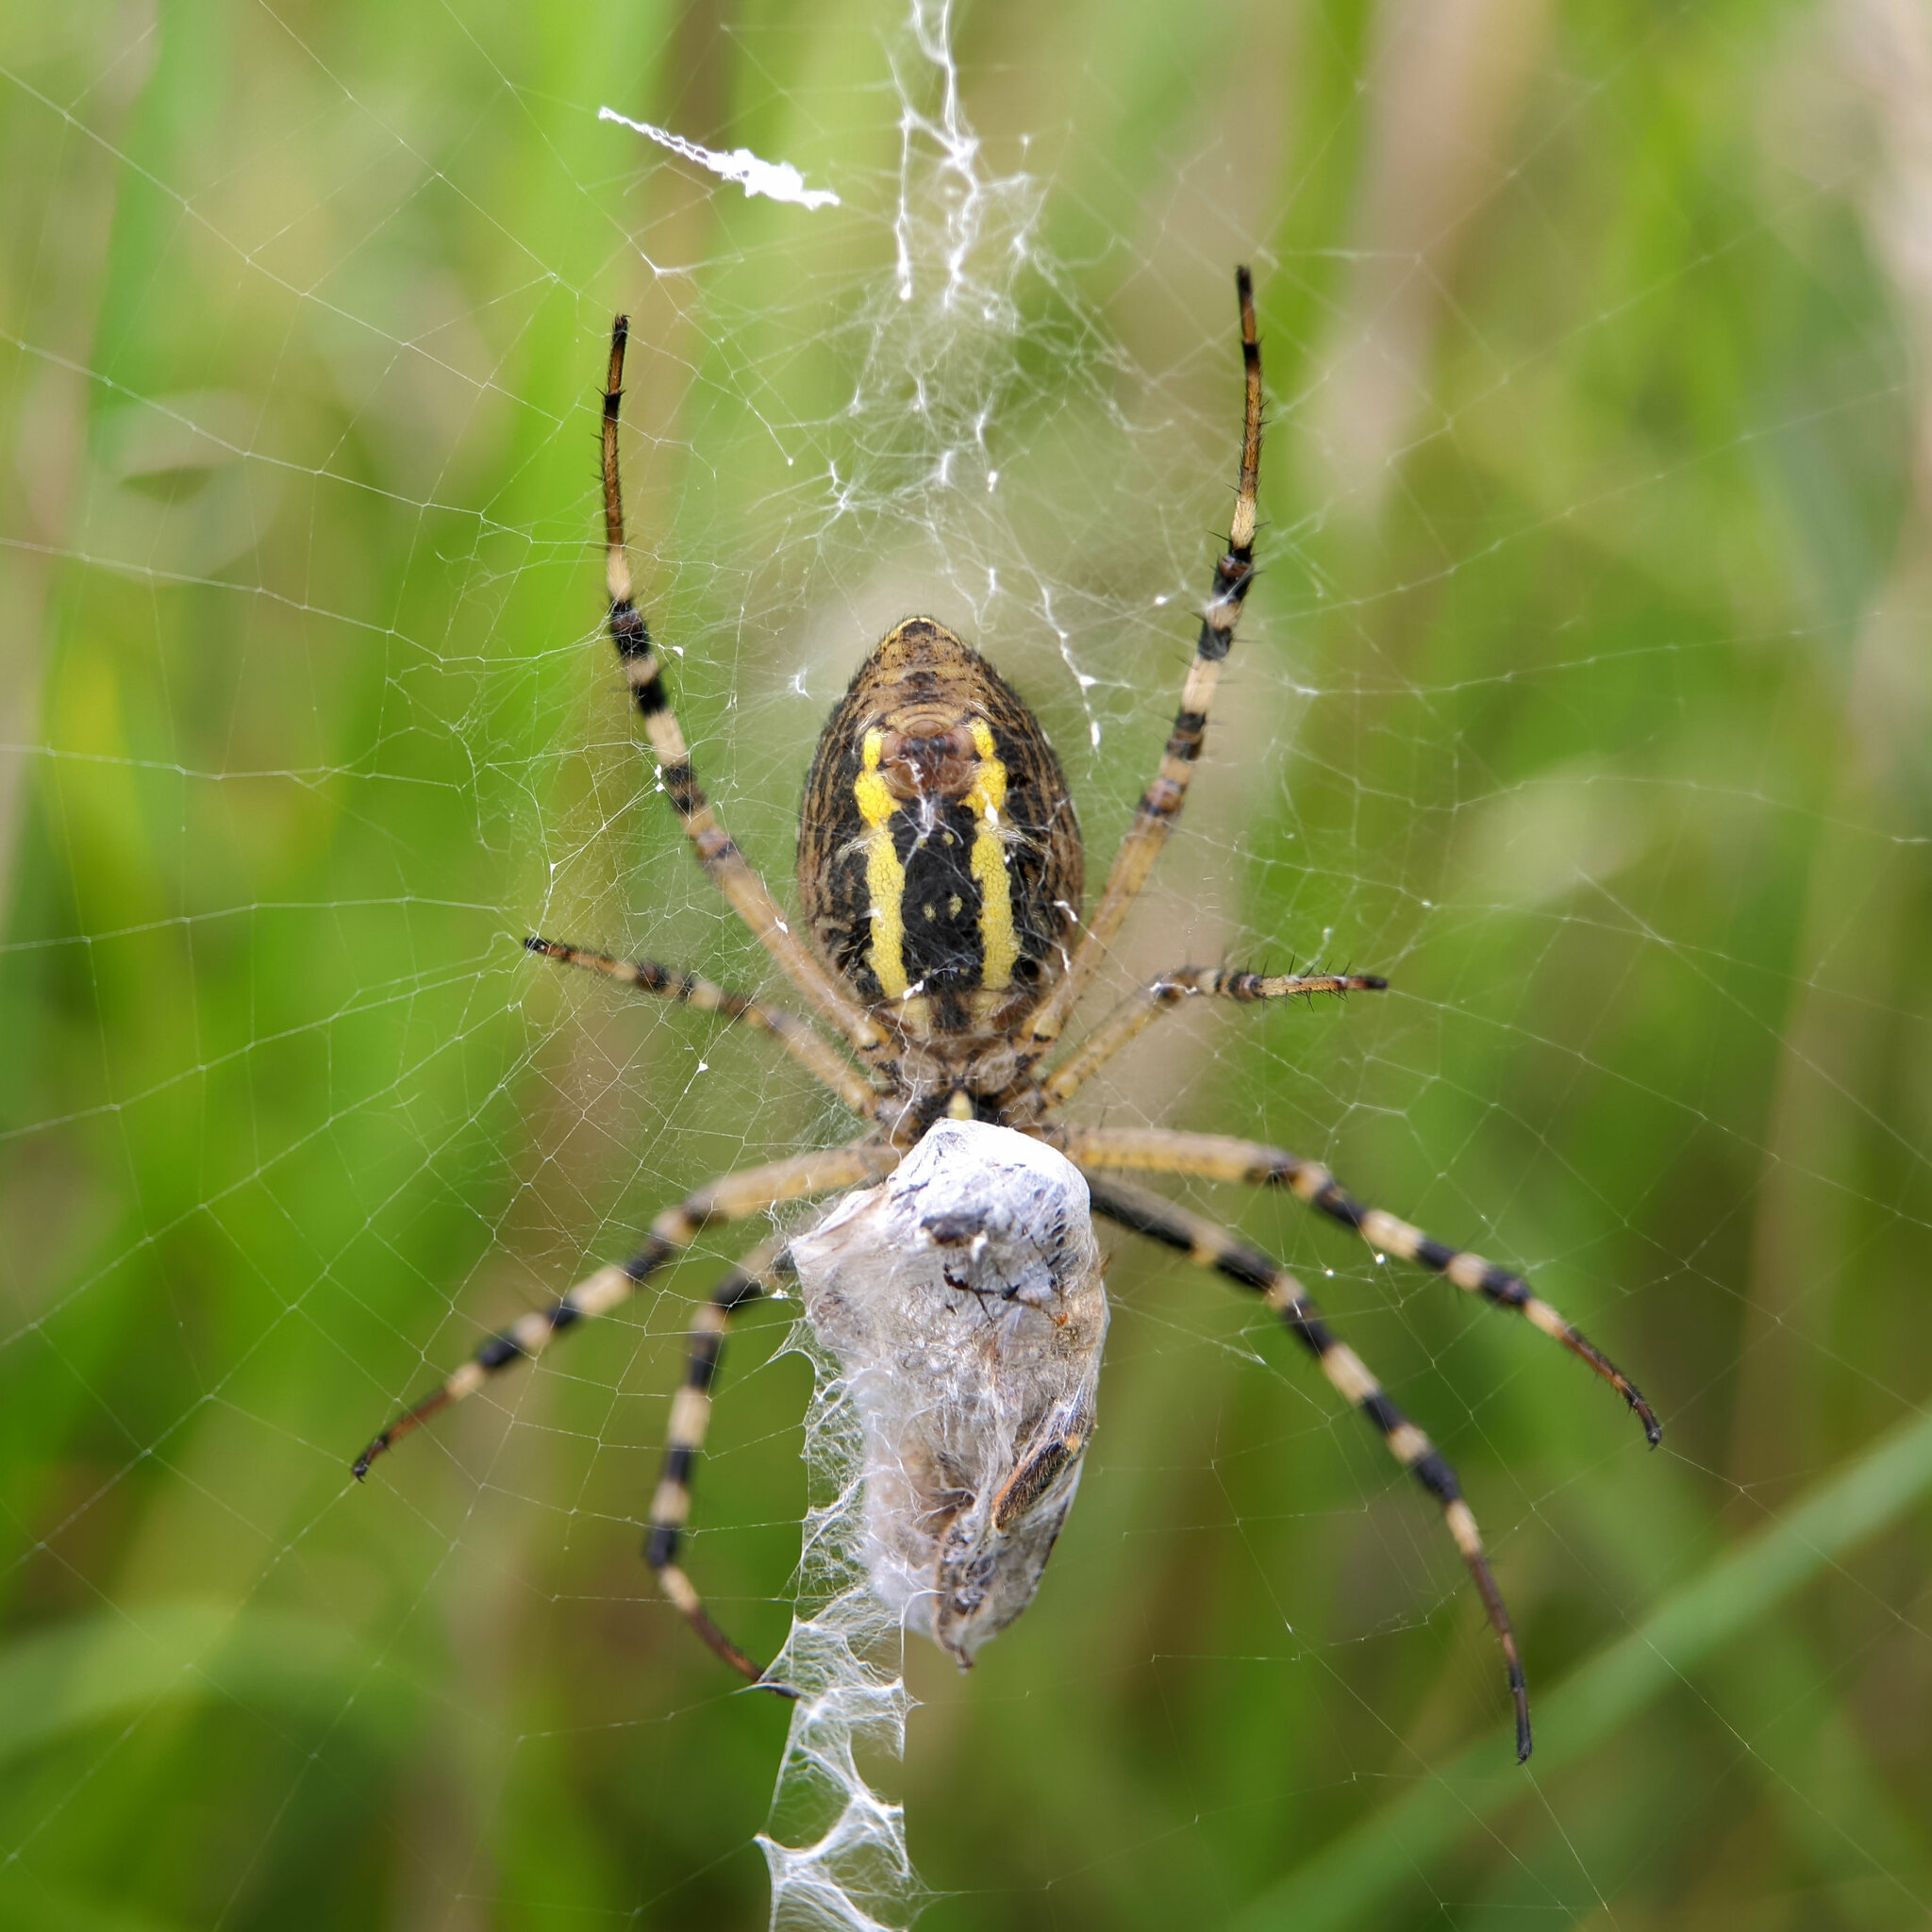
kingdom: Animalia
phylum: Arthropoda
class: Arachnida
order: Araneae
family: Araneidae
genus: Argiope
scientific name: Argiope bruennichi
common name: Wasp spider
